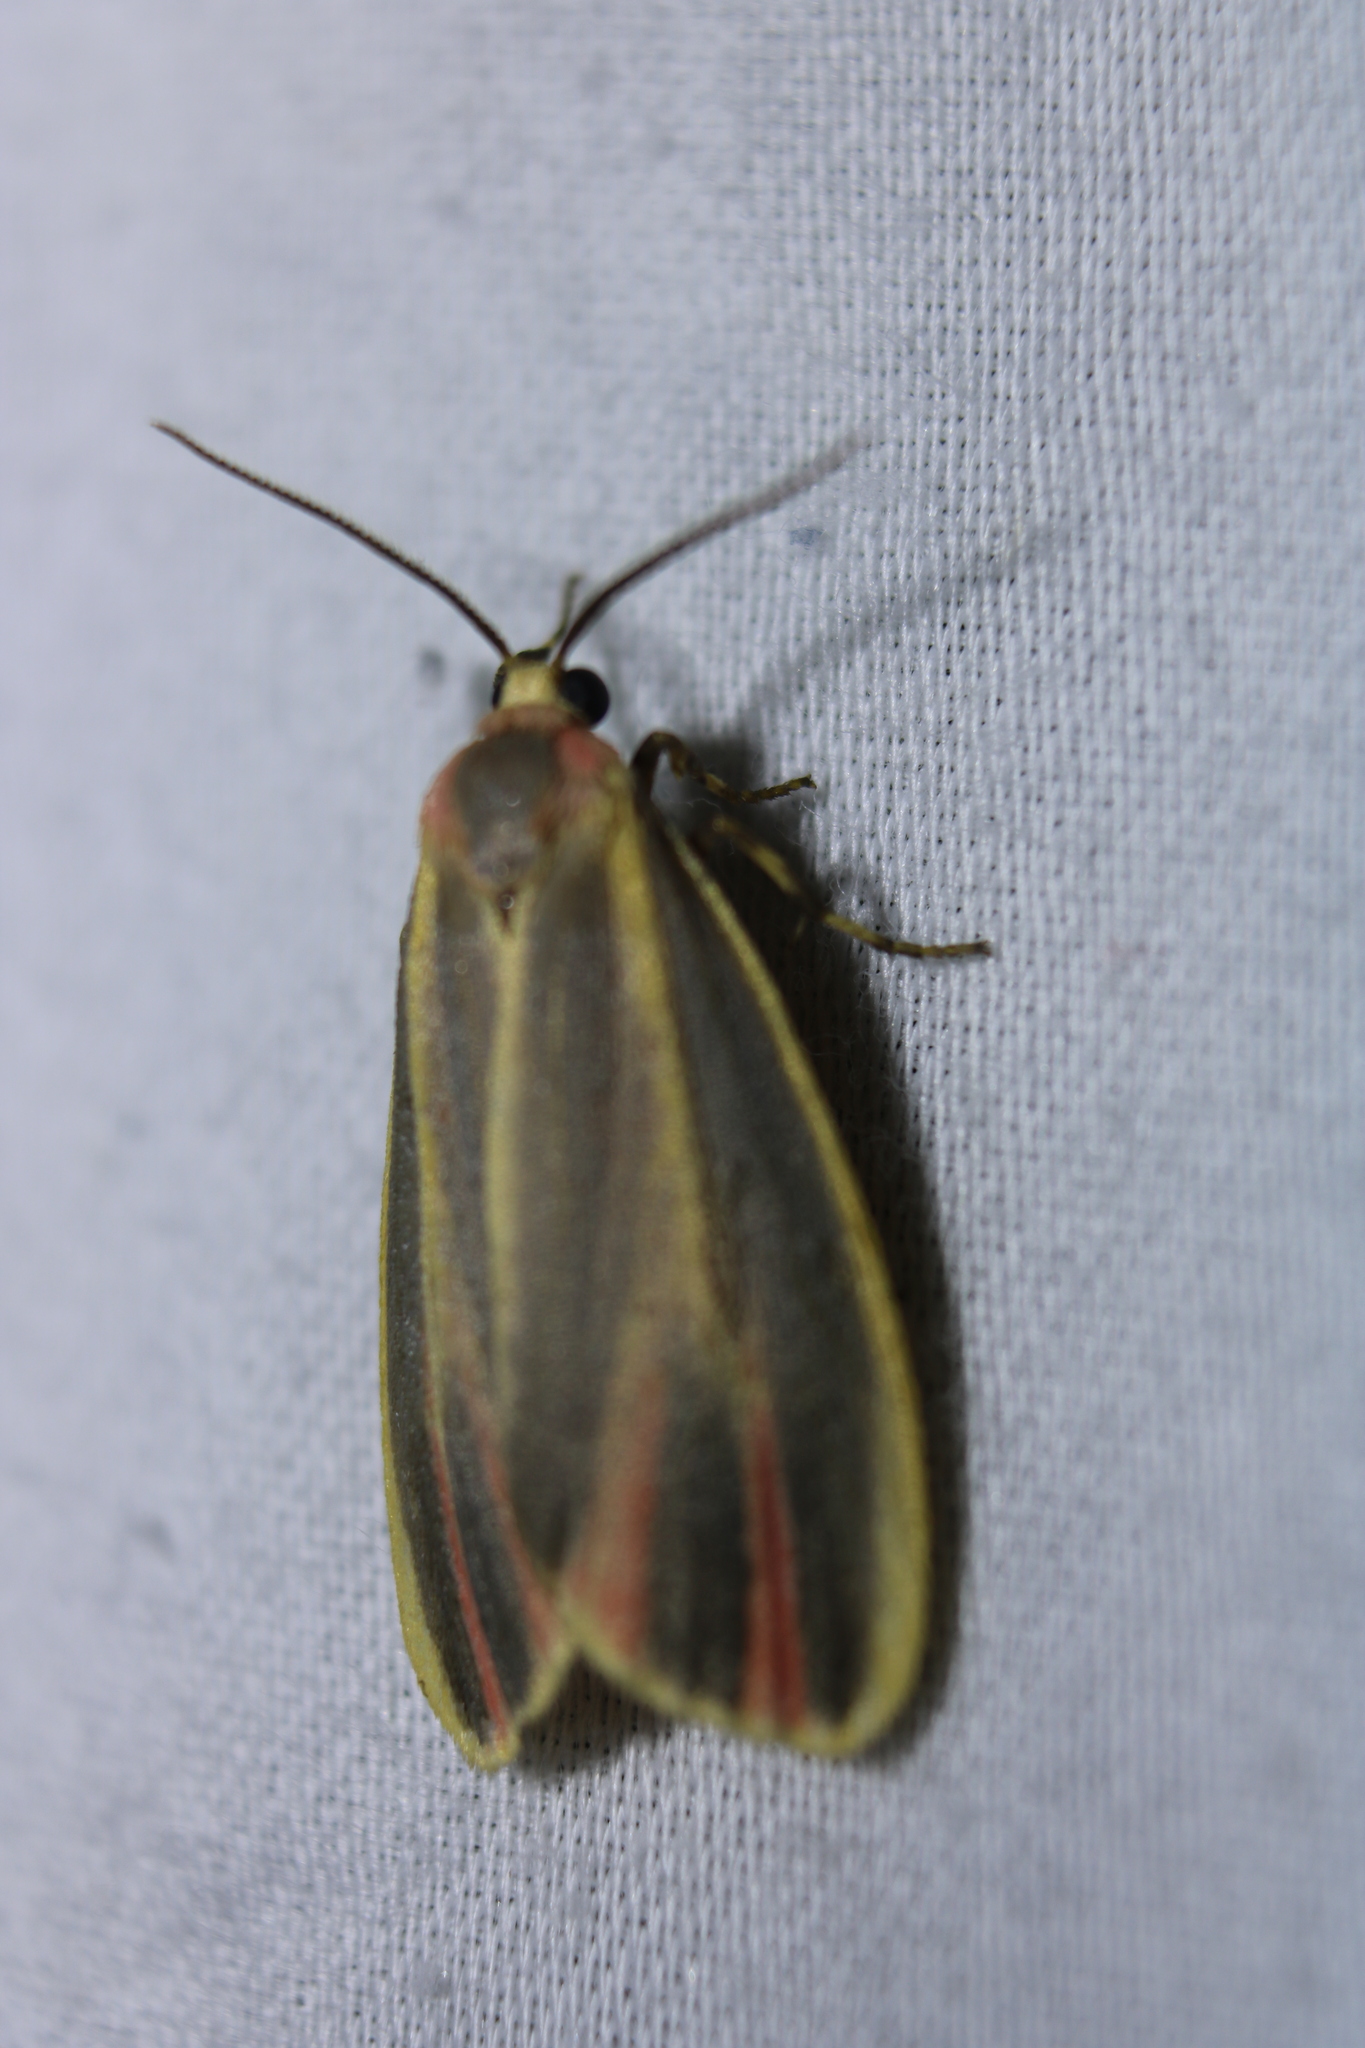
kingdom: Animalia
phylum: Arthropoda
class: Insecta
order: Lepidoptera
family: Erebidae
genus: Hypoprepia
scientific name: Hypoprepia fucosa
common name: Painted lichen moth
